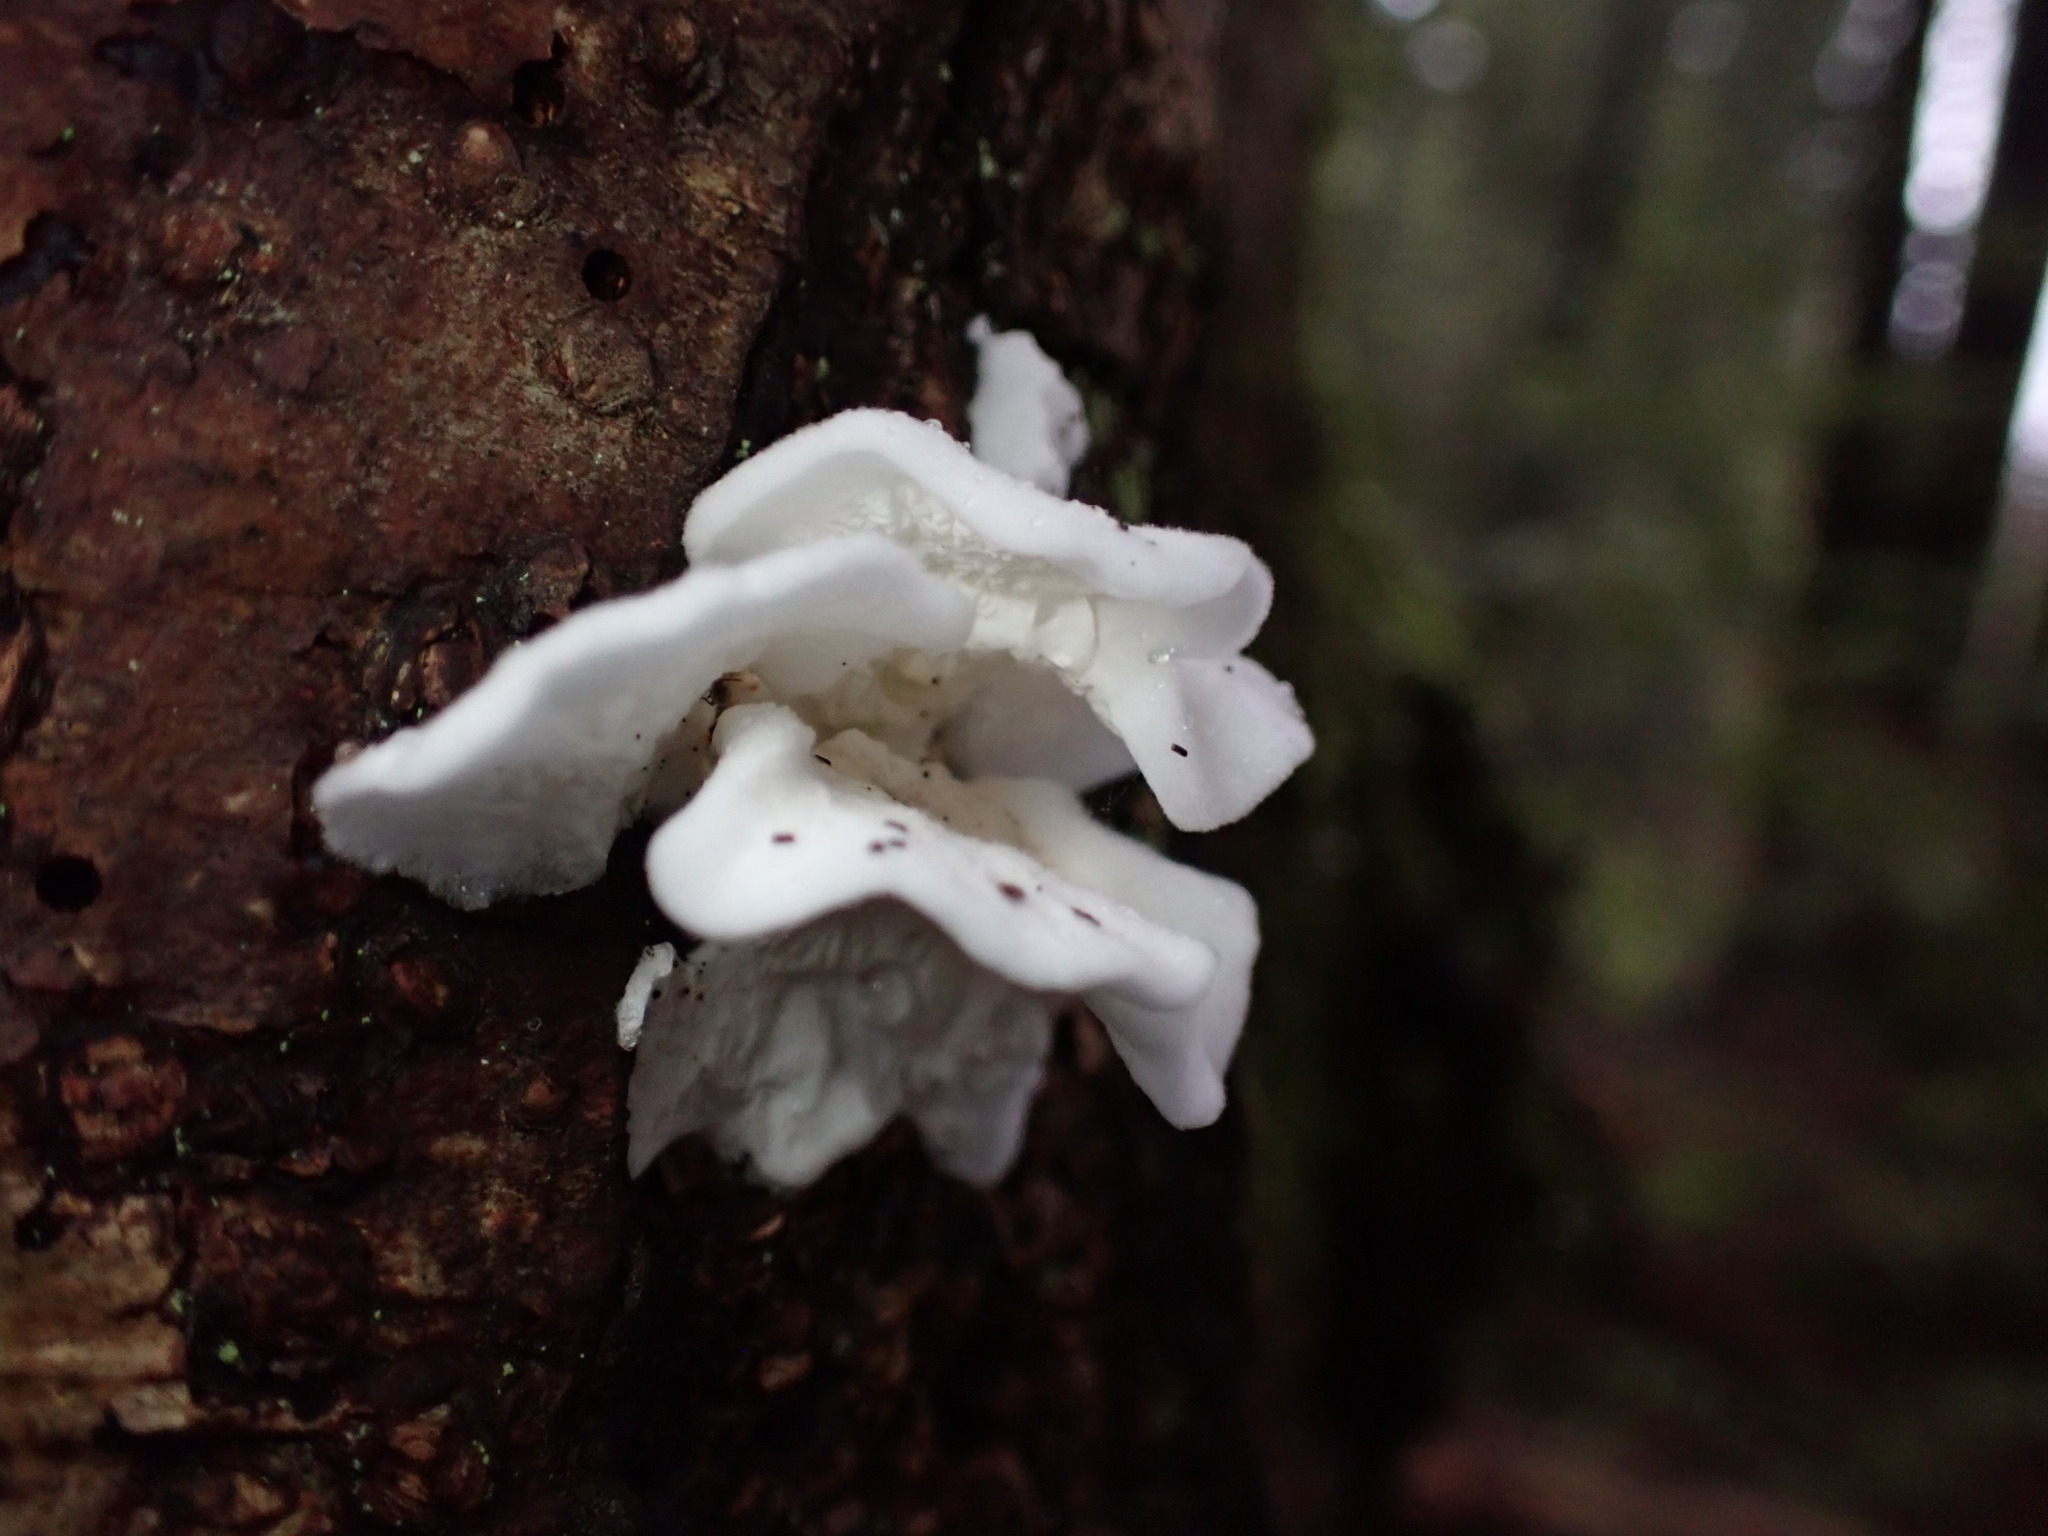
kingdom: Fungi
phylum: Basidiomycota
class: Agaricomycetes
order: Agaricales
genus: Plicatura
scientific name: Plicatura nivea
